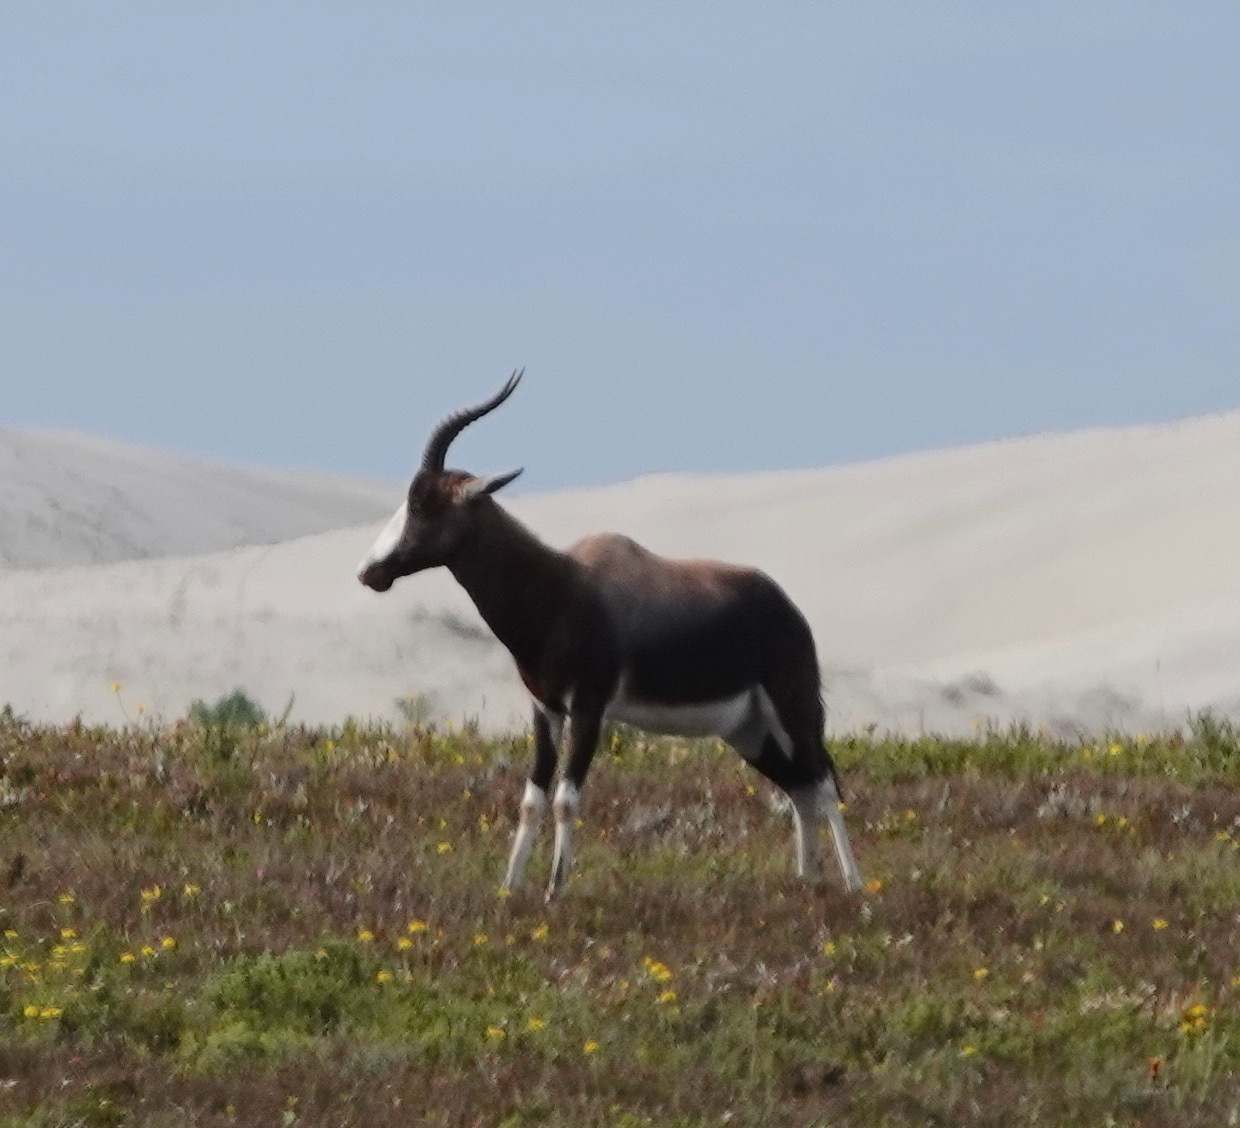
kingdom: Animalia
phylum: Chordata
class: Mammalia
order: Artiodactyla
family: Bovidae
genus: Damaliscus
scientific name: Damaliscus pygargus
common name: Bontebok
